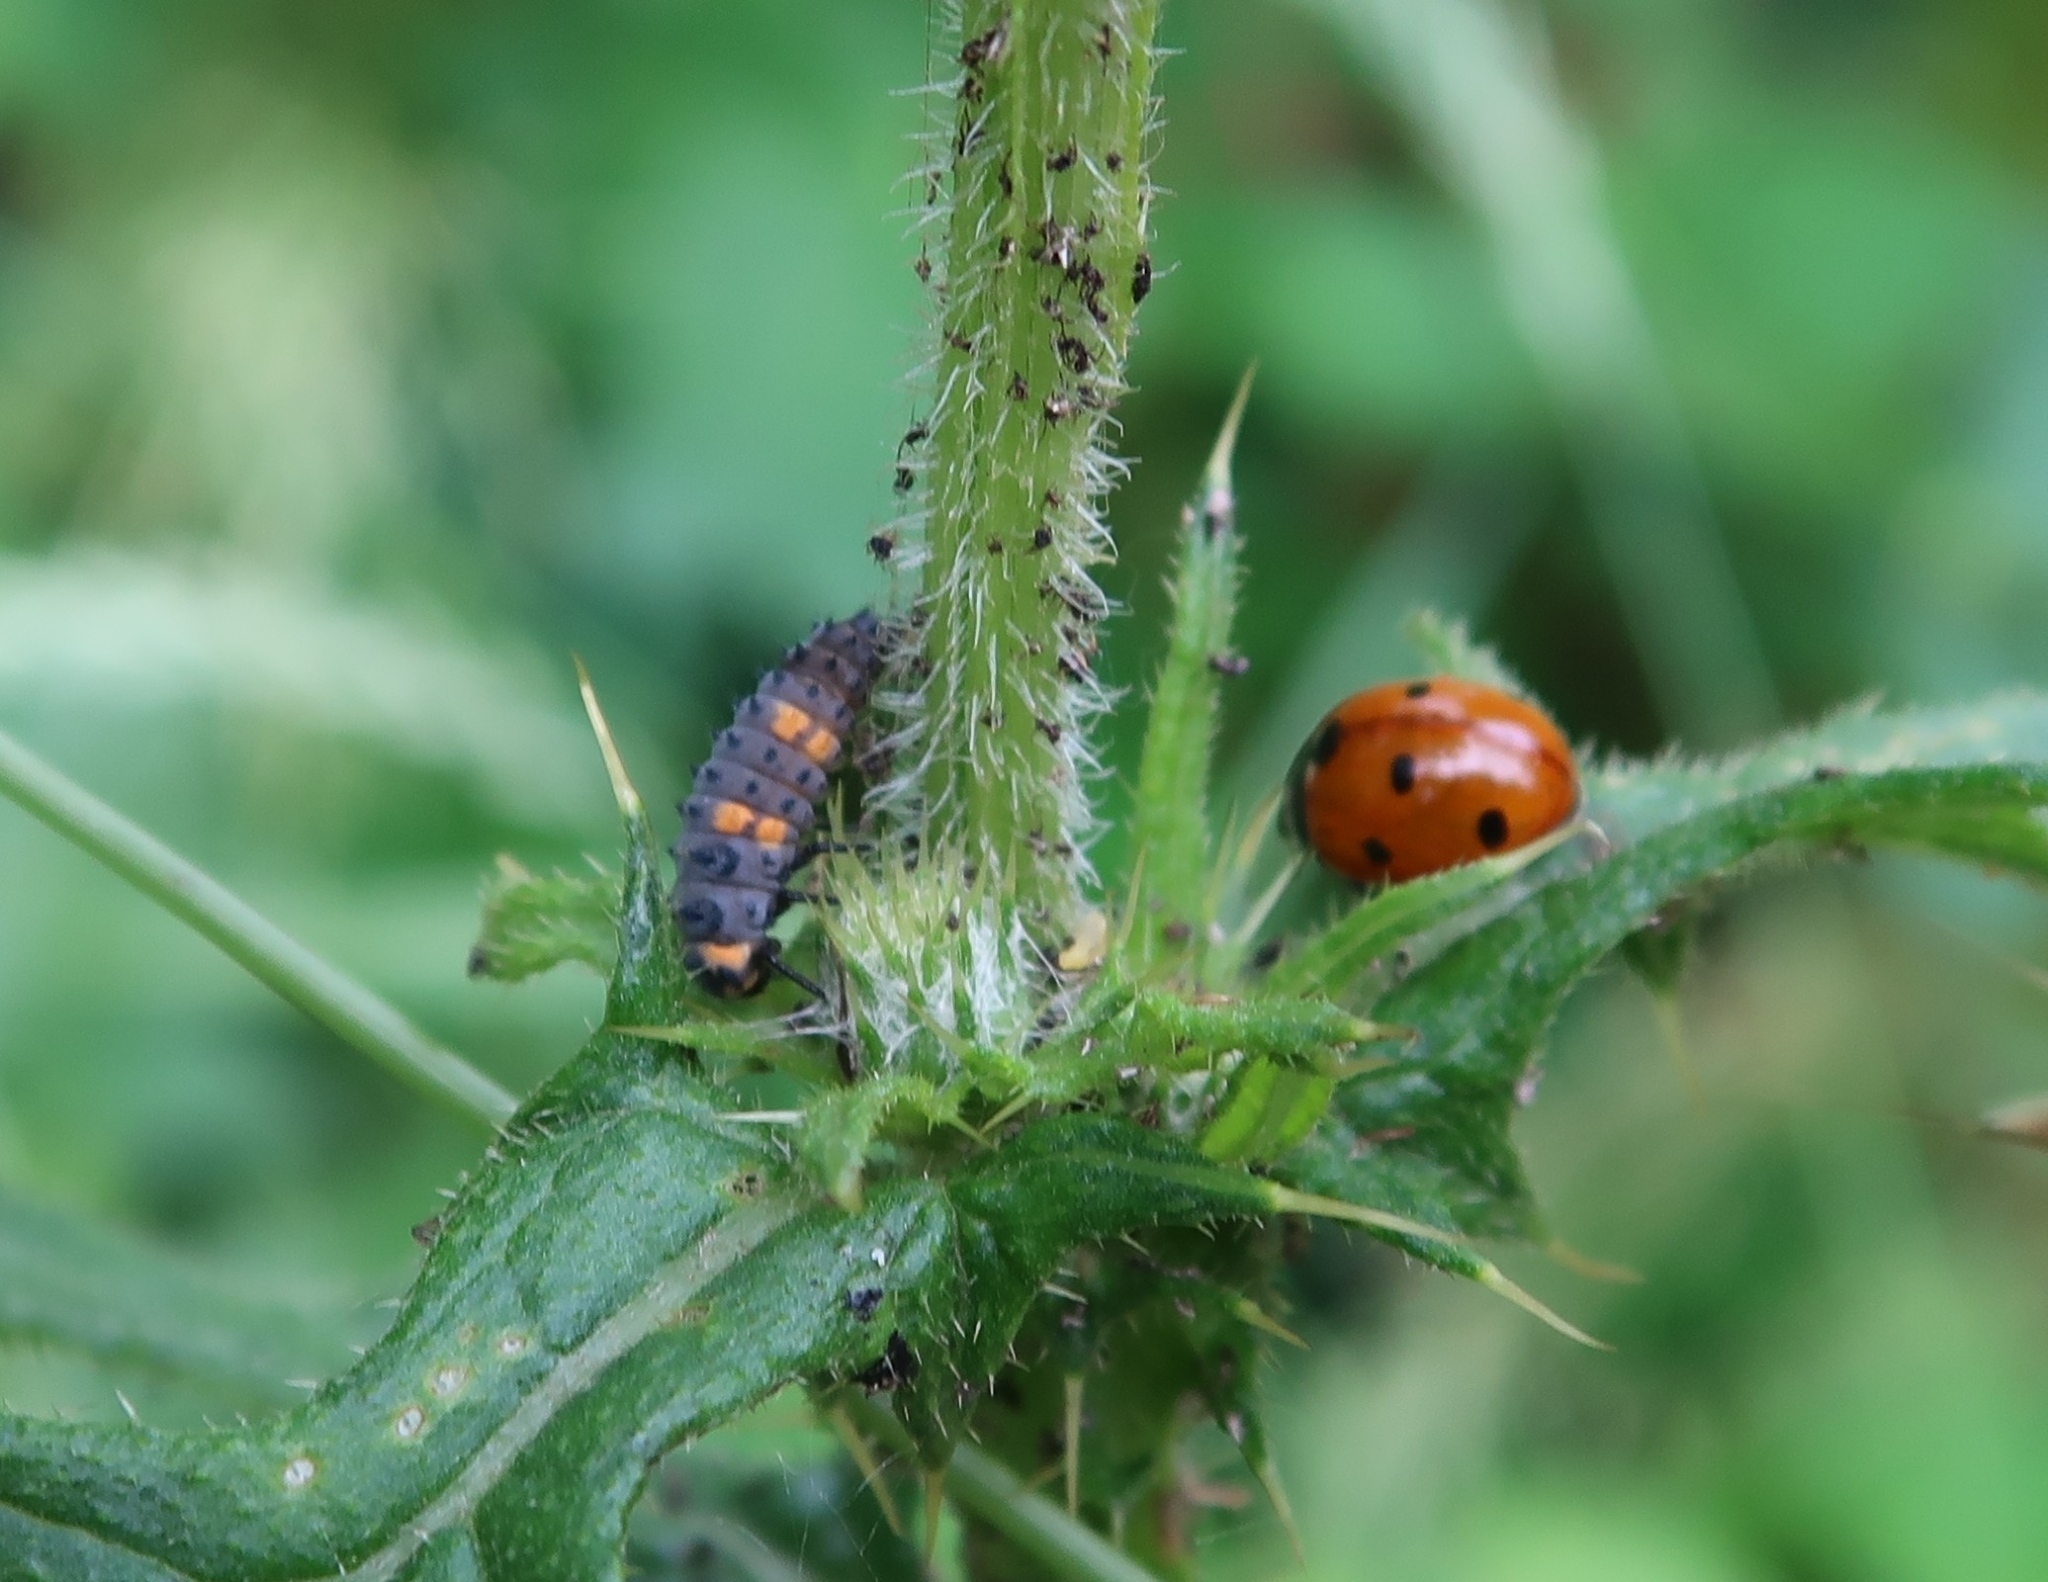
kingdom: Animalia
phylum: Arthropoda
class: Insecta
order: Coleoptera
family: Coccinellidae
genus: Coccinella
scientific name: Coccinella septempunctata
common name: Sevenspotted lady beetle
